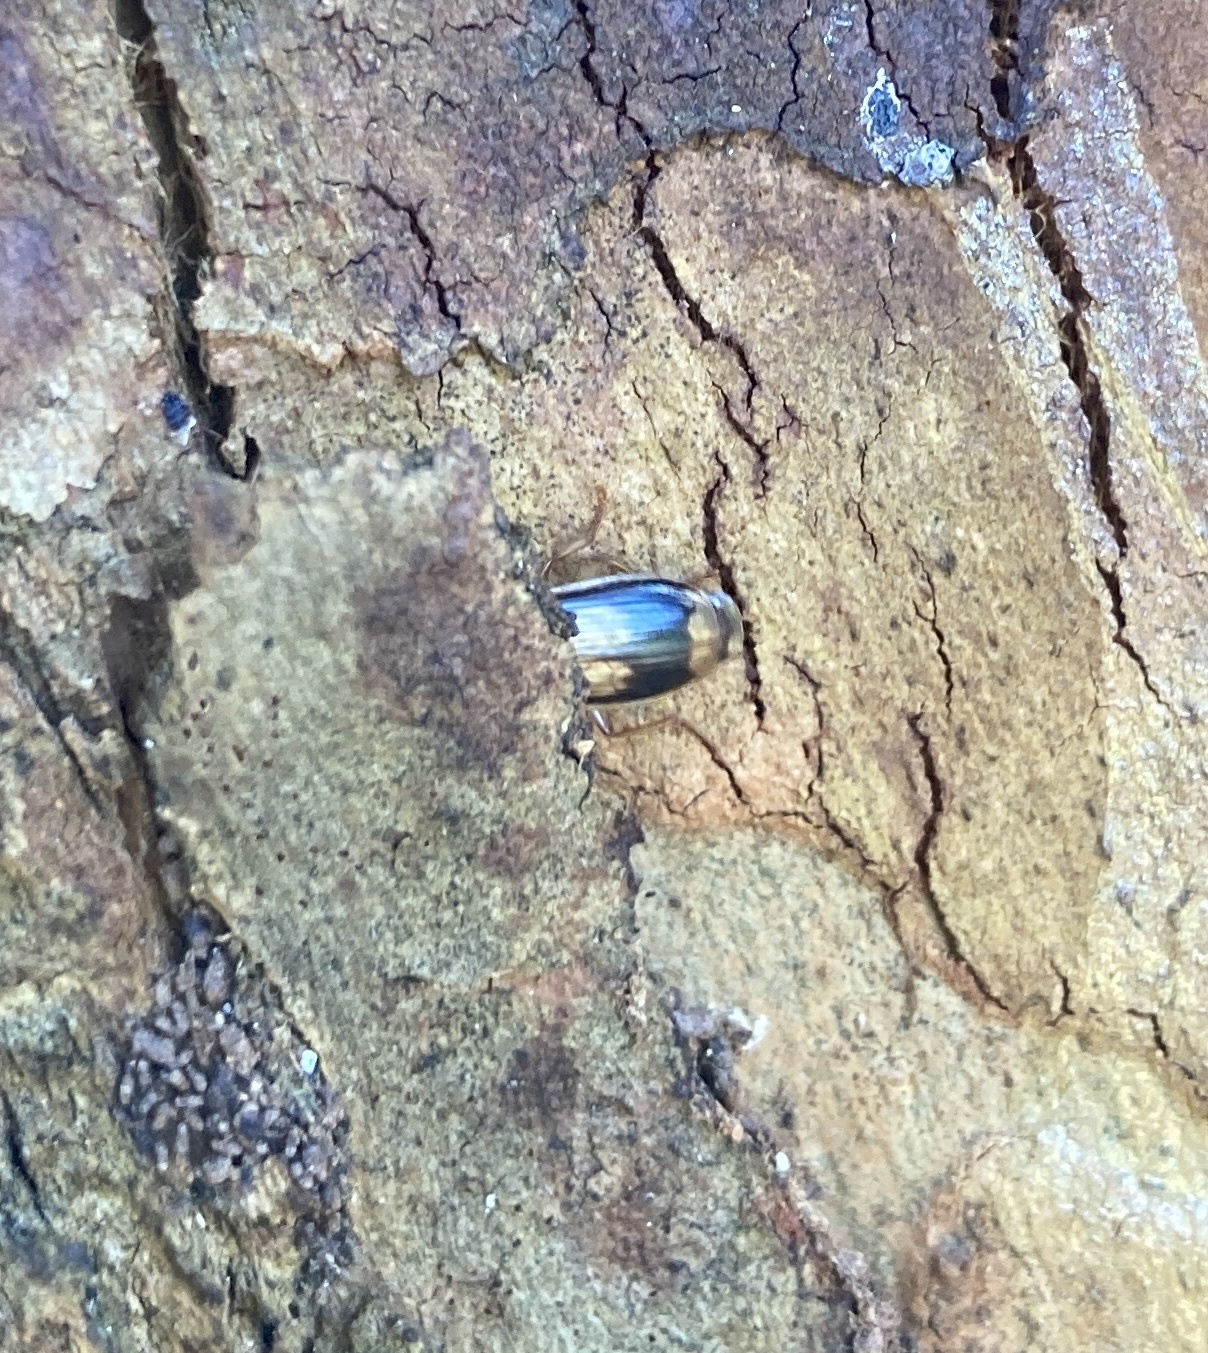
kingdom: Animalia
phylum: Arthropoda
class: Insecta
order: Coleoptera
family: Carabidae
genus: Trigonothops
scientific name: Trigonothops pacificus
